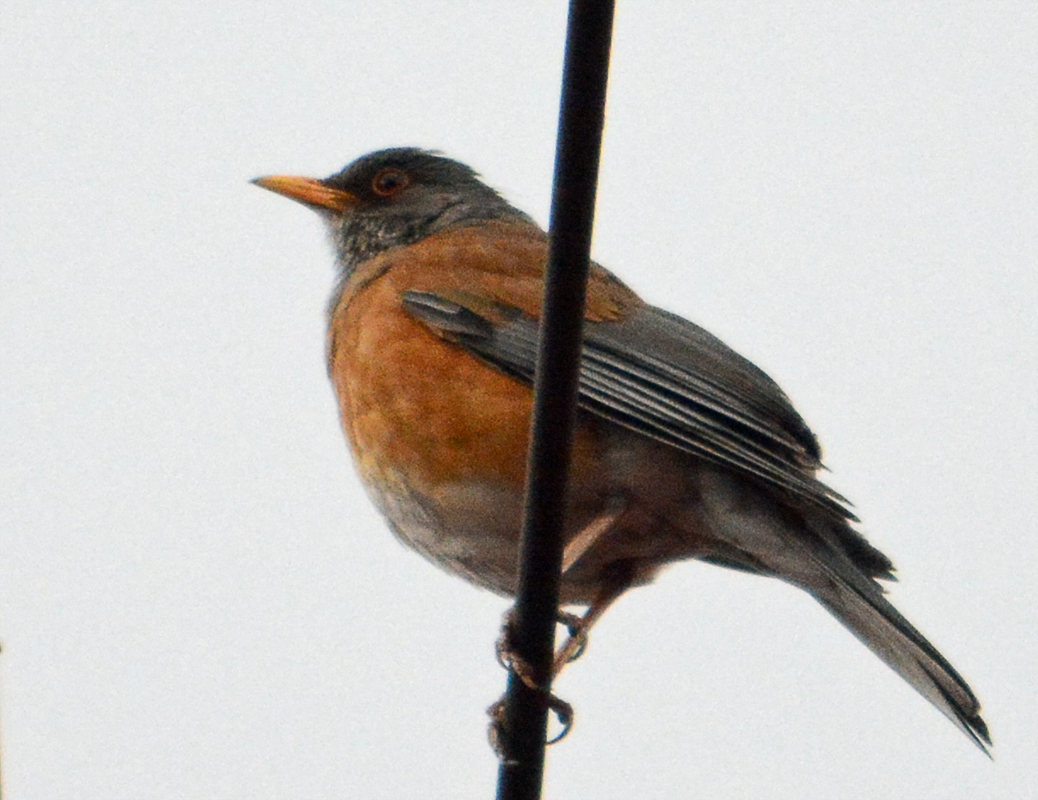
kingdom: Animalia
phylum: Chordata
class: Aves
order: Passeriformes
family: Turdidae
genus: Turdus
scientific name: Turdus rufopalliatus
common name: Rufous-backed robin
